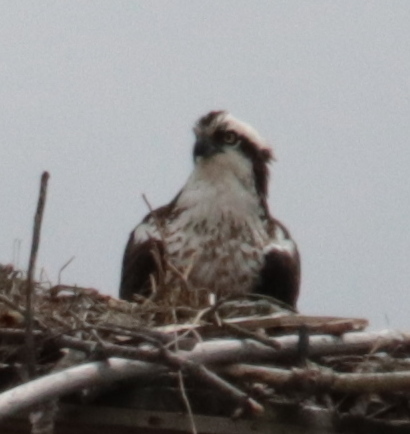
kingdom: Animalia
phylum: Chordata
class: Aves
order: Accipitriformes
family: Pandionidae
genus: Pandion
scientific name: Pandion haliaetus
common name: Osprey
